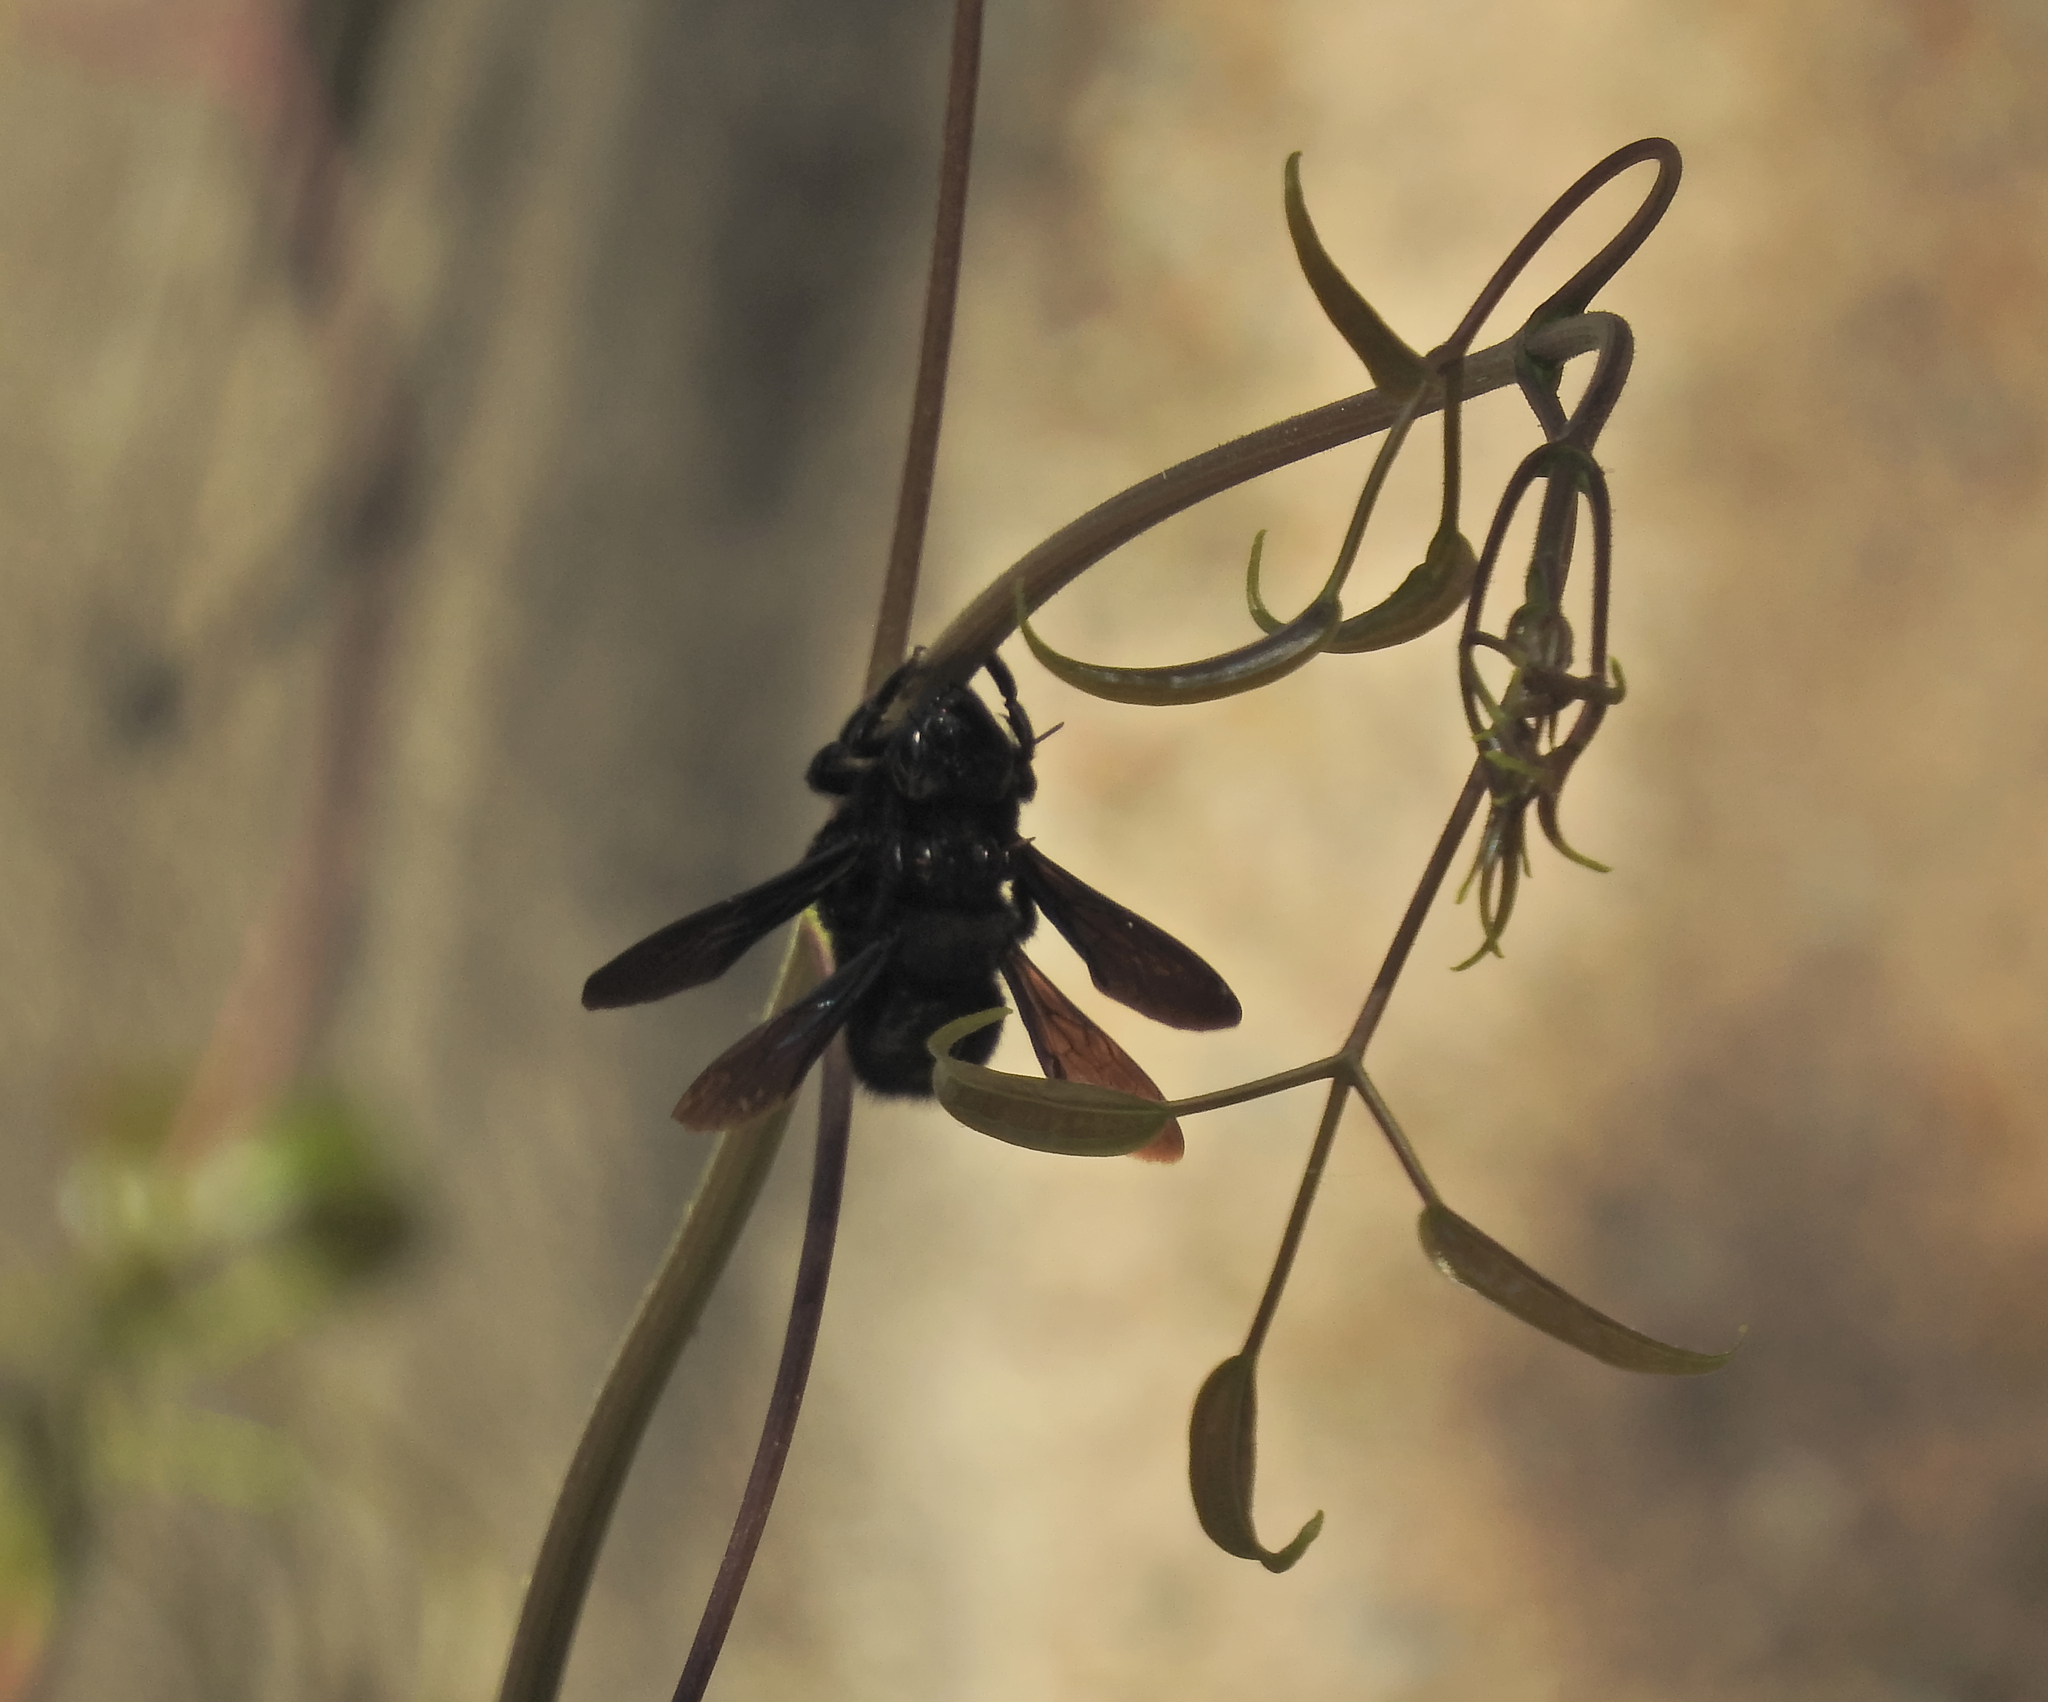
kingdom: Animalia
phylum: Arthropoda
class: Insecta
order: Hymenoptera
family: Apidae
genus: Xylocopa
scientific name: Xylocopa violacea
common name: Violet carpenter bee
